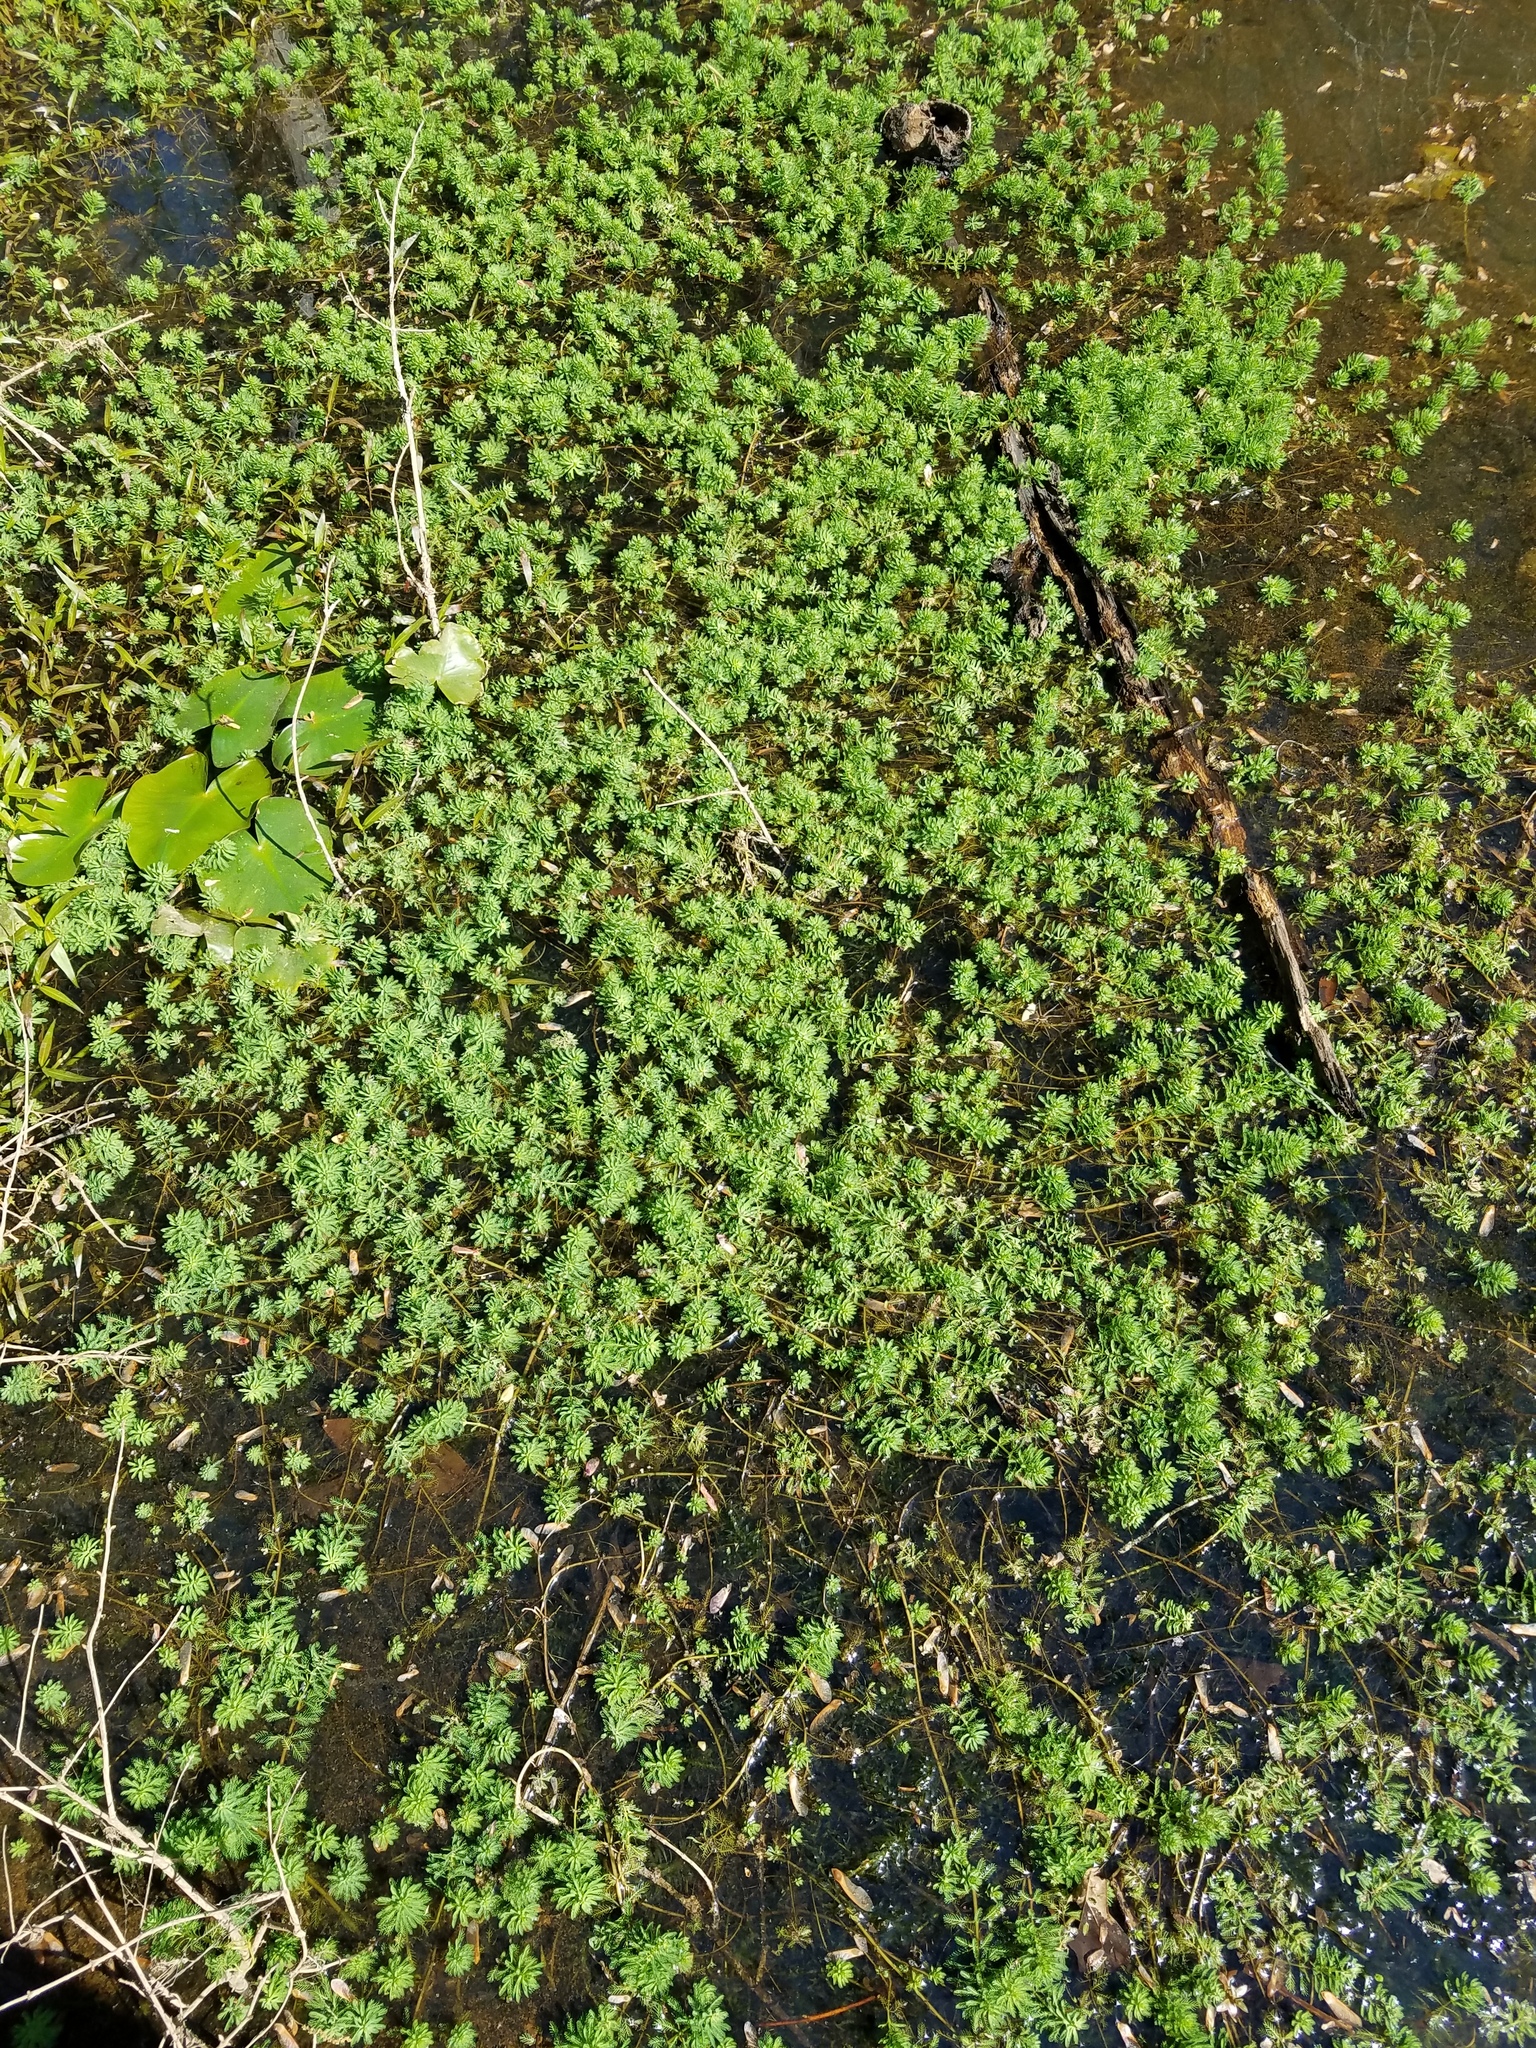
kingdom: Plantae
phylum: Tracheophyta
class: Magnoliopsida
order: Saxifragales
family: Haloragaceae
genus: Myriophyllum
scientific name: Myriophyllum aquaticum
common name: Parrot's feather
